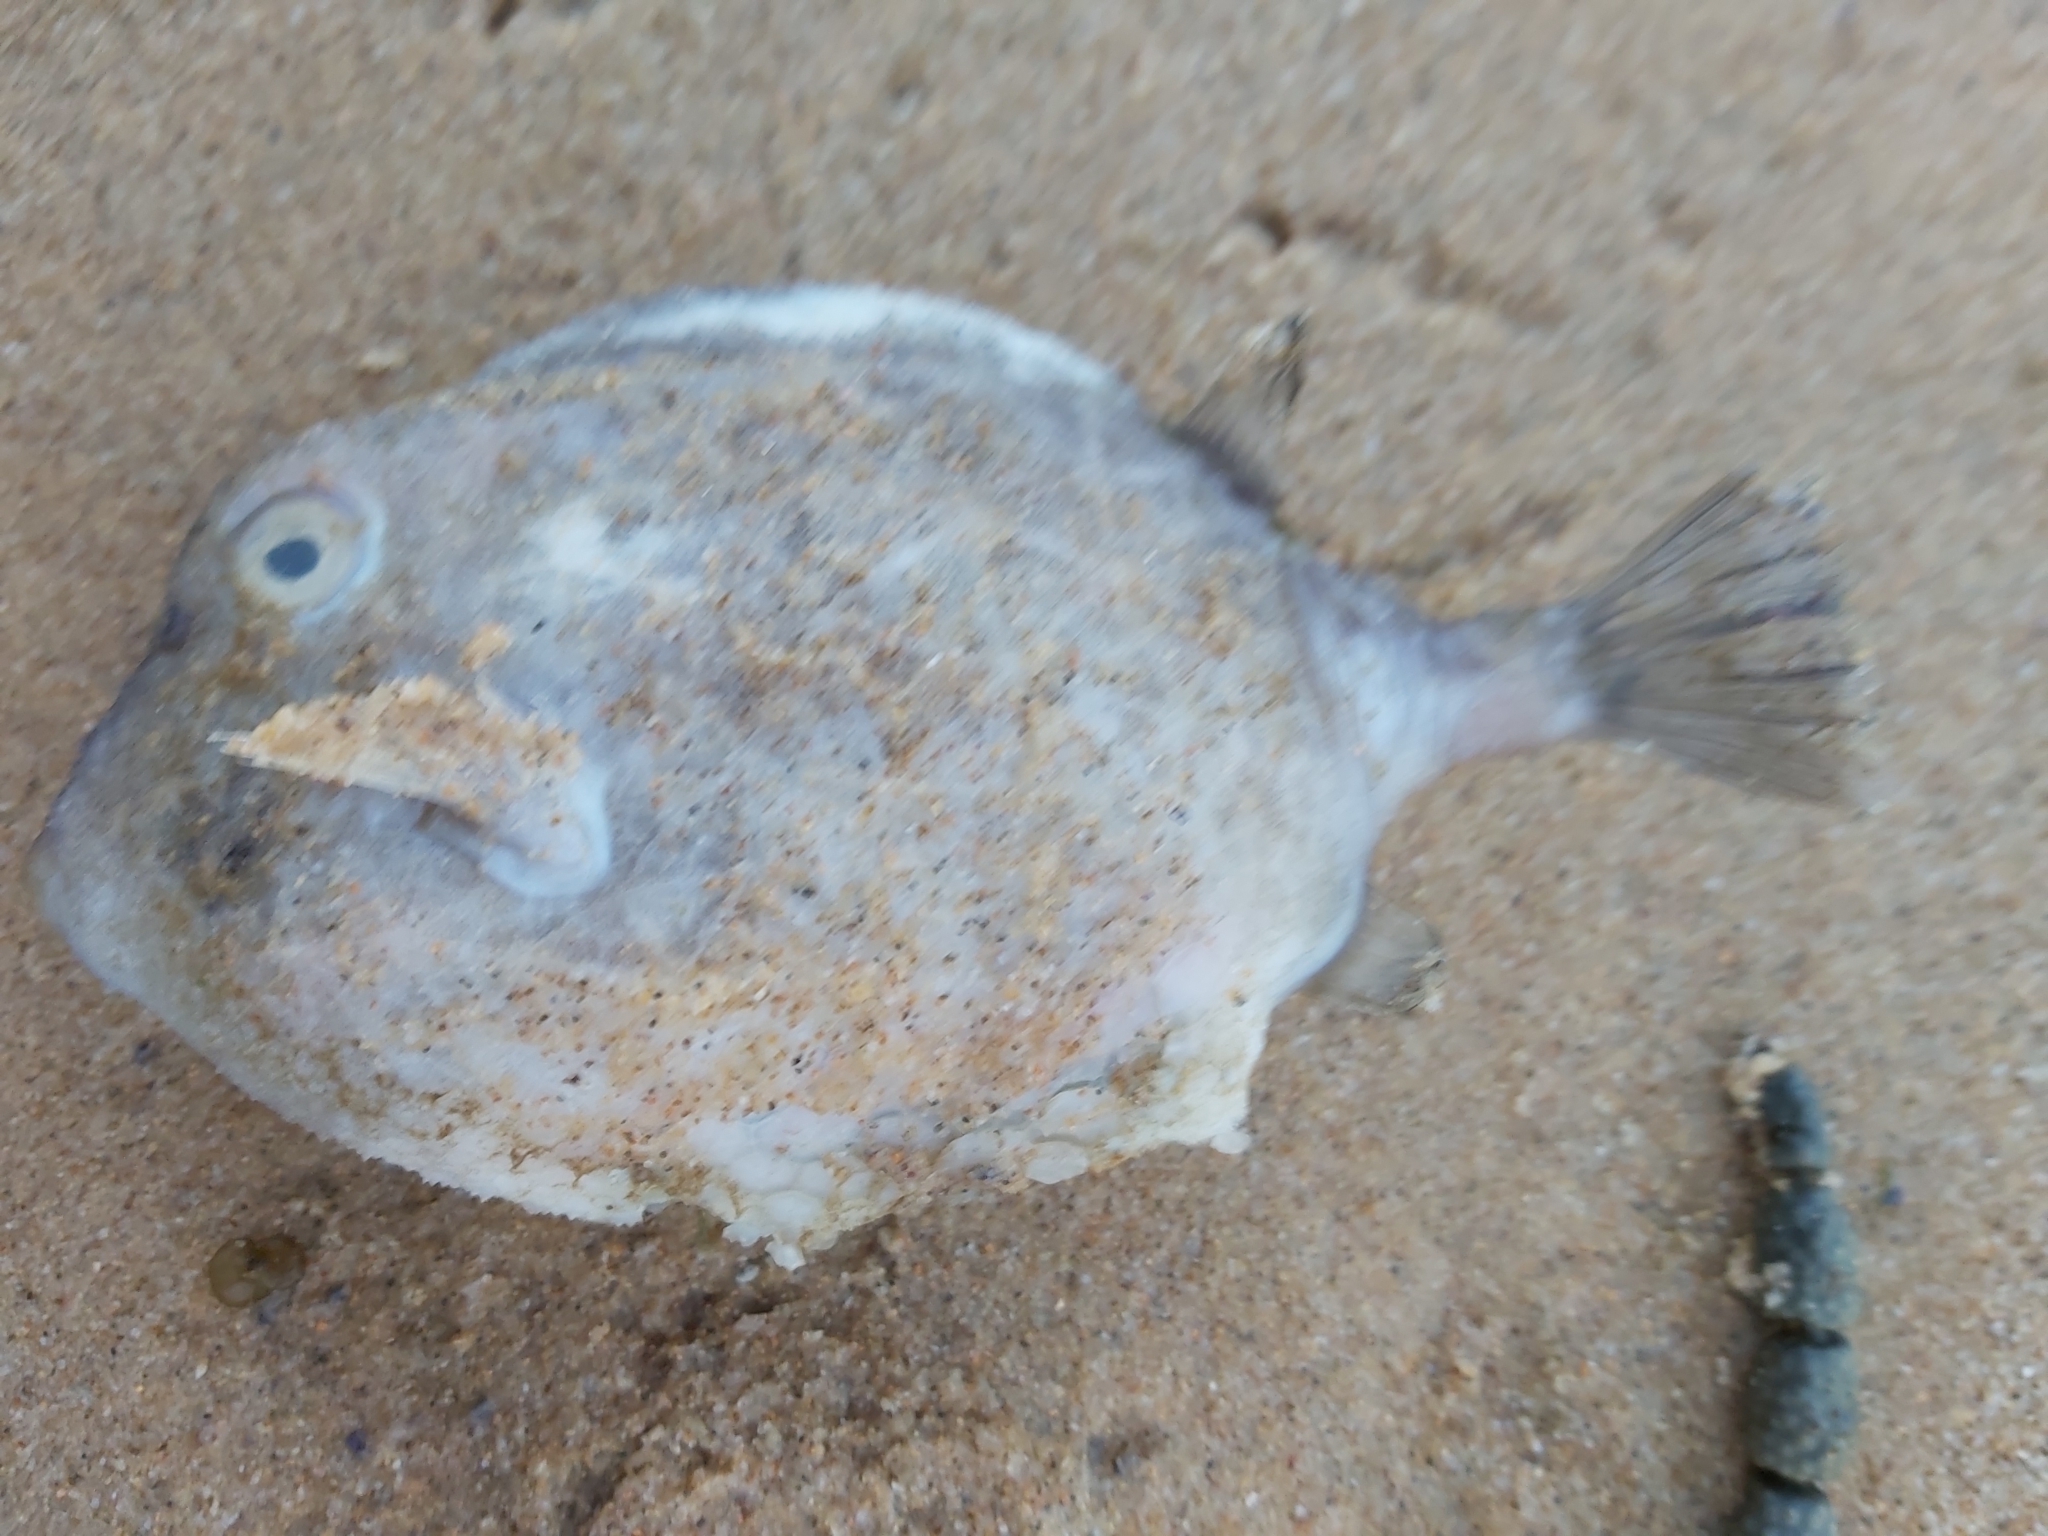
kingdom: Animalia
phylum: Chordata
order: Tetraodontiformes
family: Aracanidae
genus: Anoplocapros
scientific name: Anoplocapros inermis
